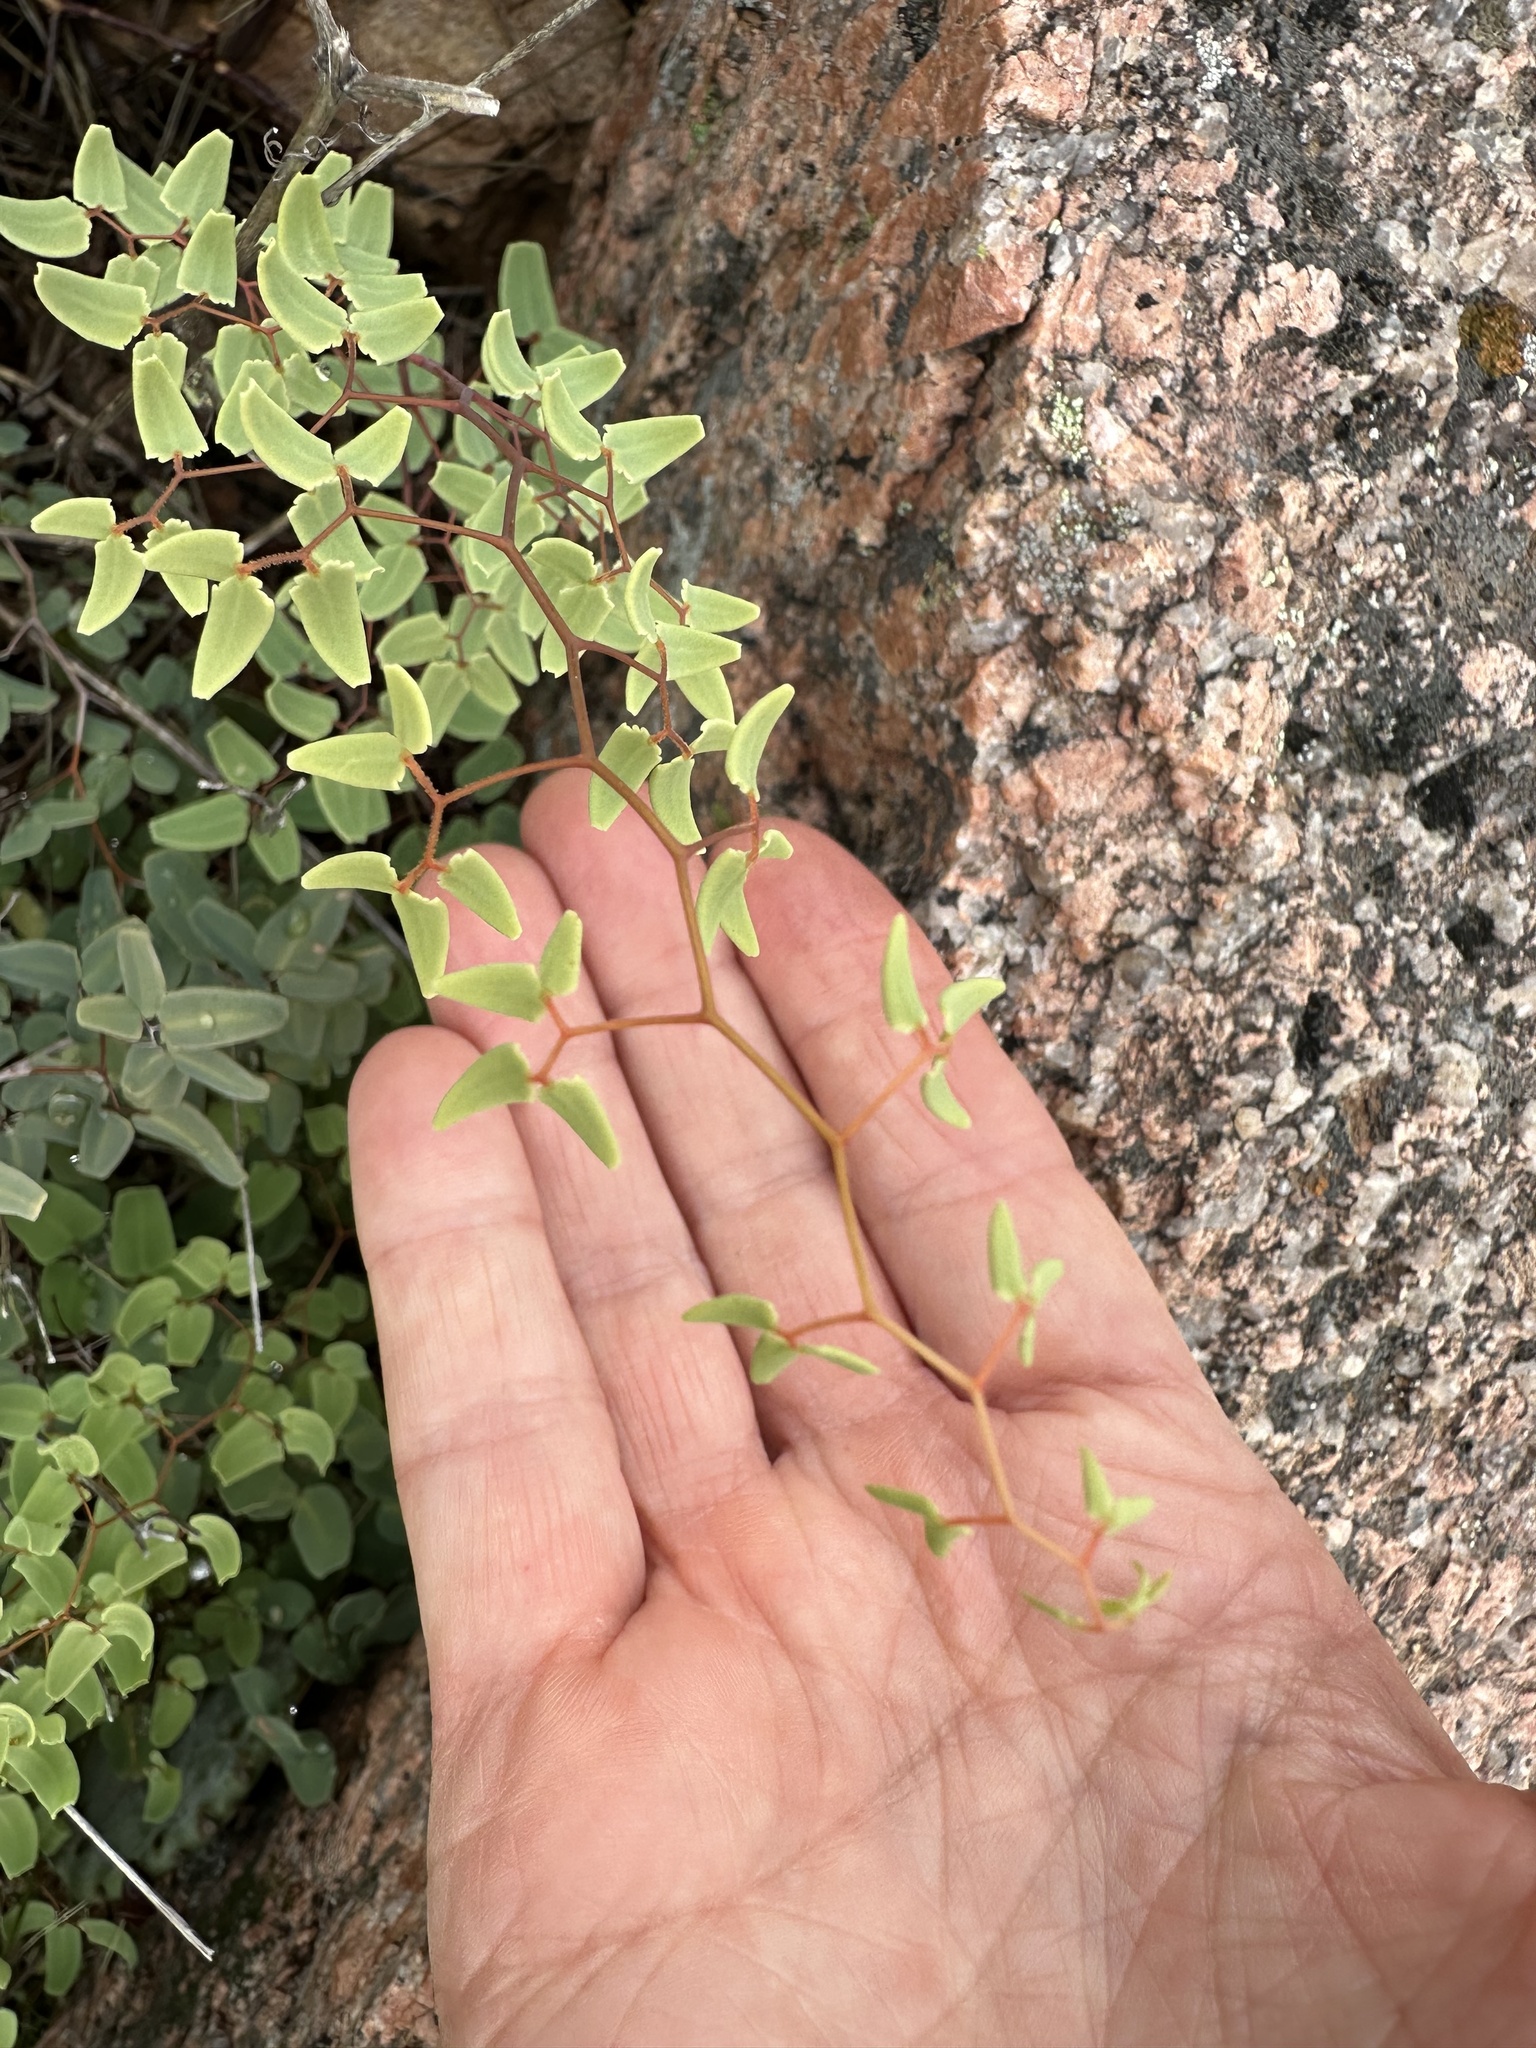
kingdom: Plantae
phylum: Tracheophyta
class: Polypodiopsida
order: Polypodiales
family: Pteridaceae
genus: Pellaea
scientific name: Pellaea ovata
